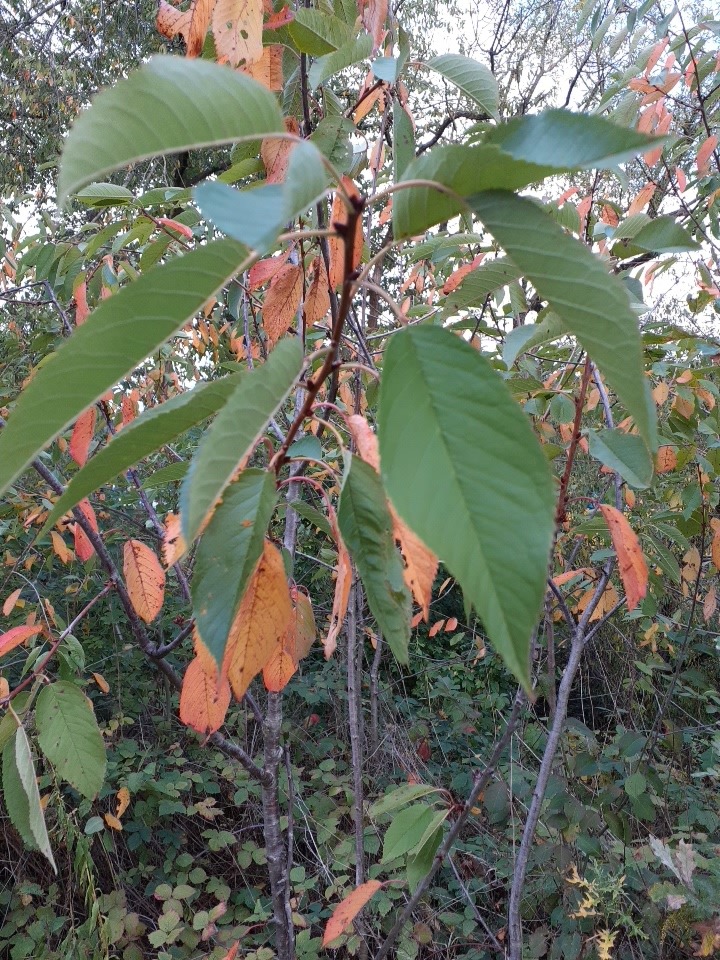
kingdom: Plantae
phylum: Tracheophyta
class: Magnoliopsida
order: Rosales
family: Rosaceae
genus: Prunus
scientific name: Prunus avium
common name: Sweet cherry
